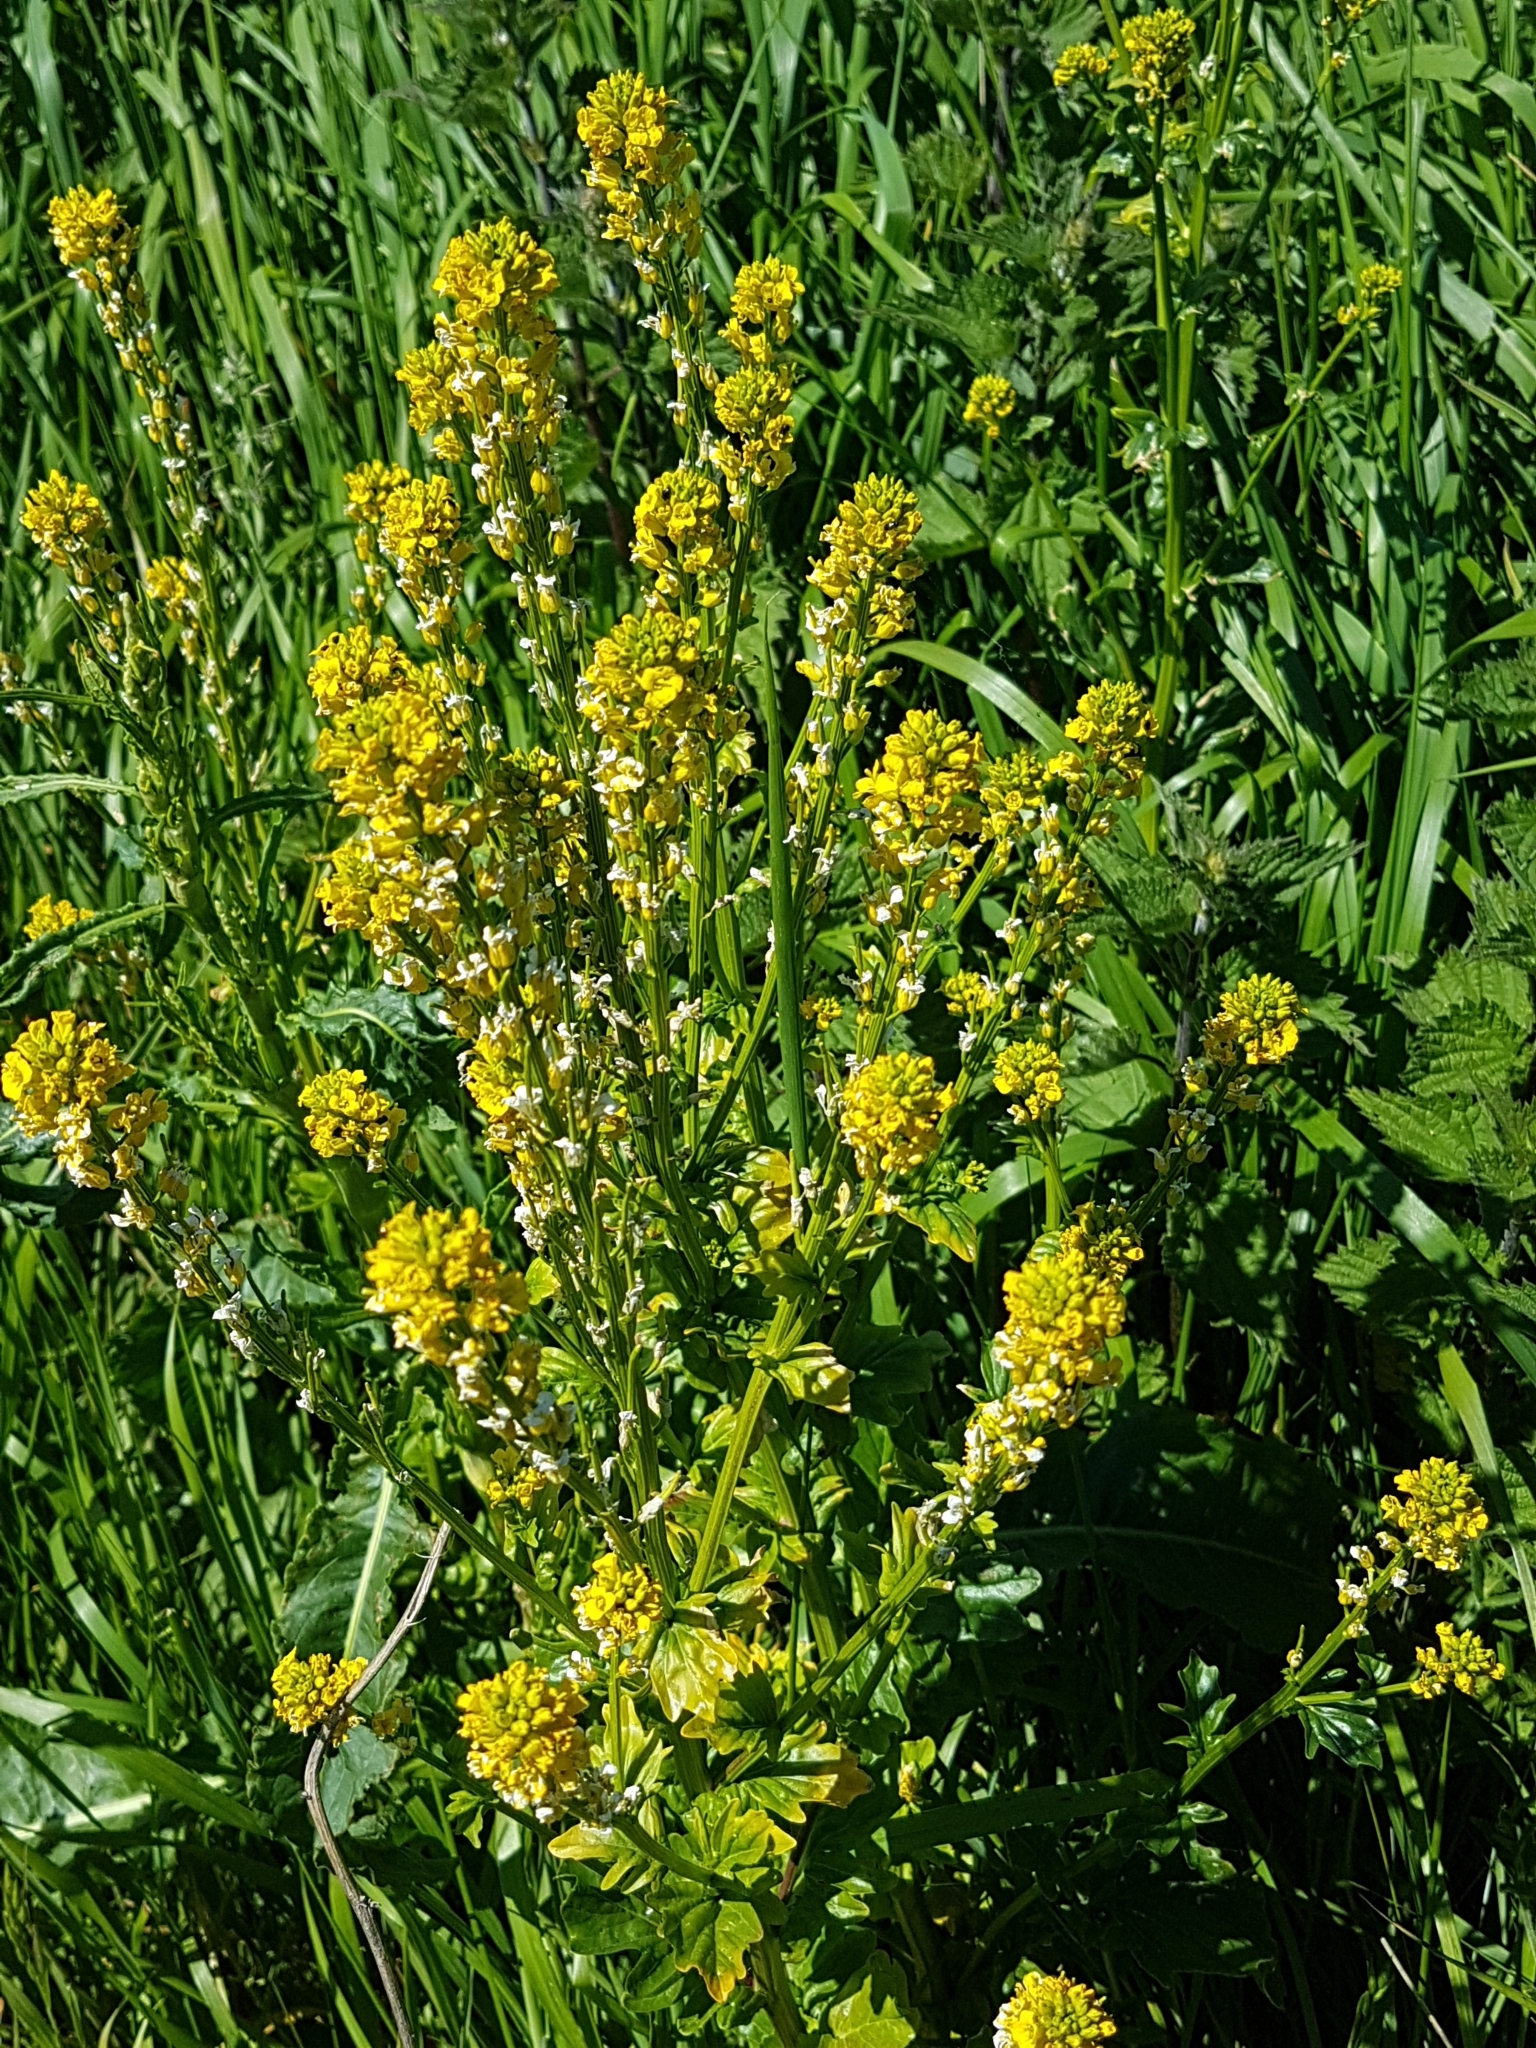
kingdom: Plantae
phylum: Tracheophyta
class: Magnoliopsida
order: Brassicales
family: Brassicaceae
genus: Barbarea
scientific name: Barbarea vulgaris
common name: Cressy-greens
